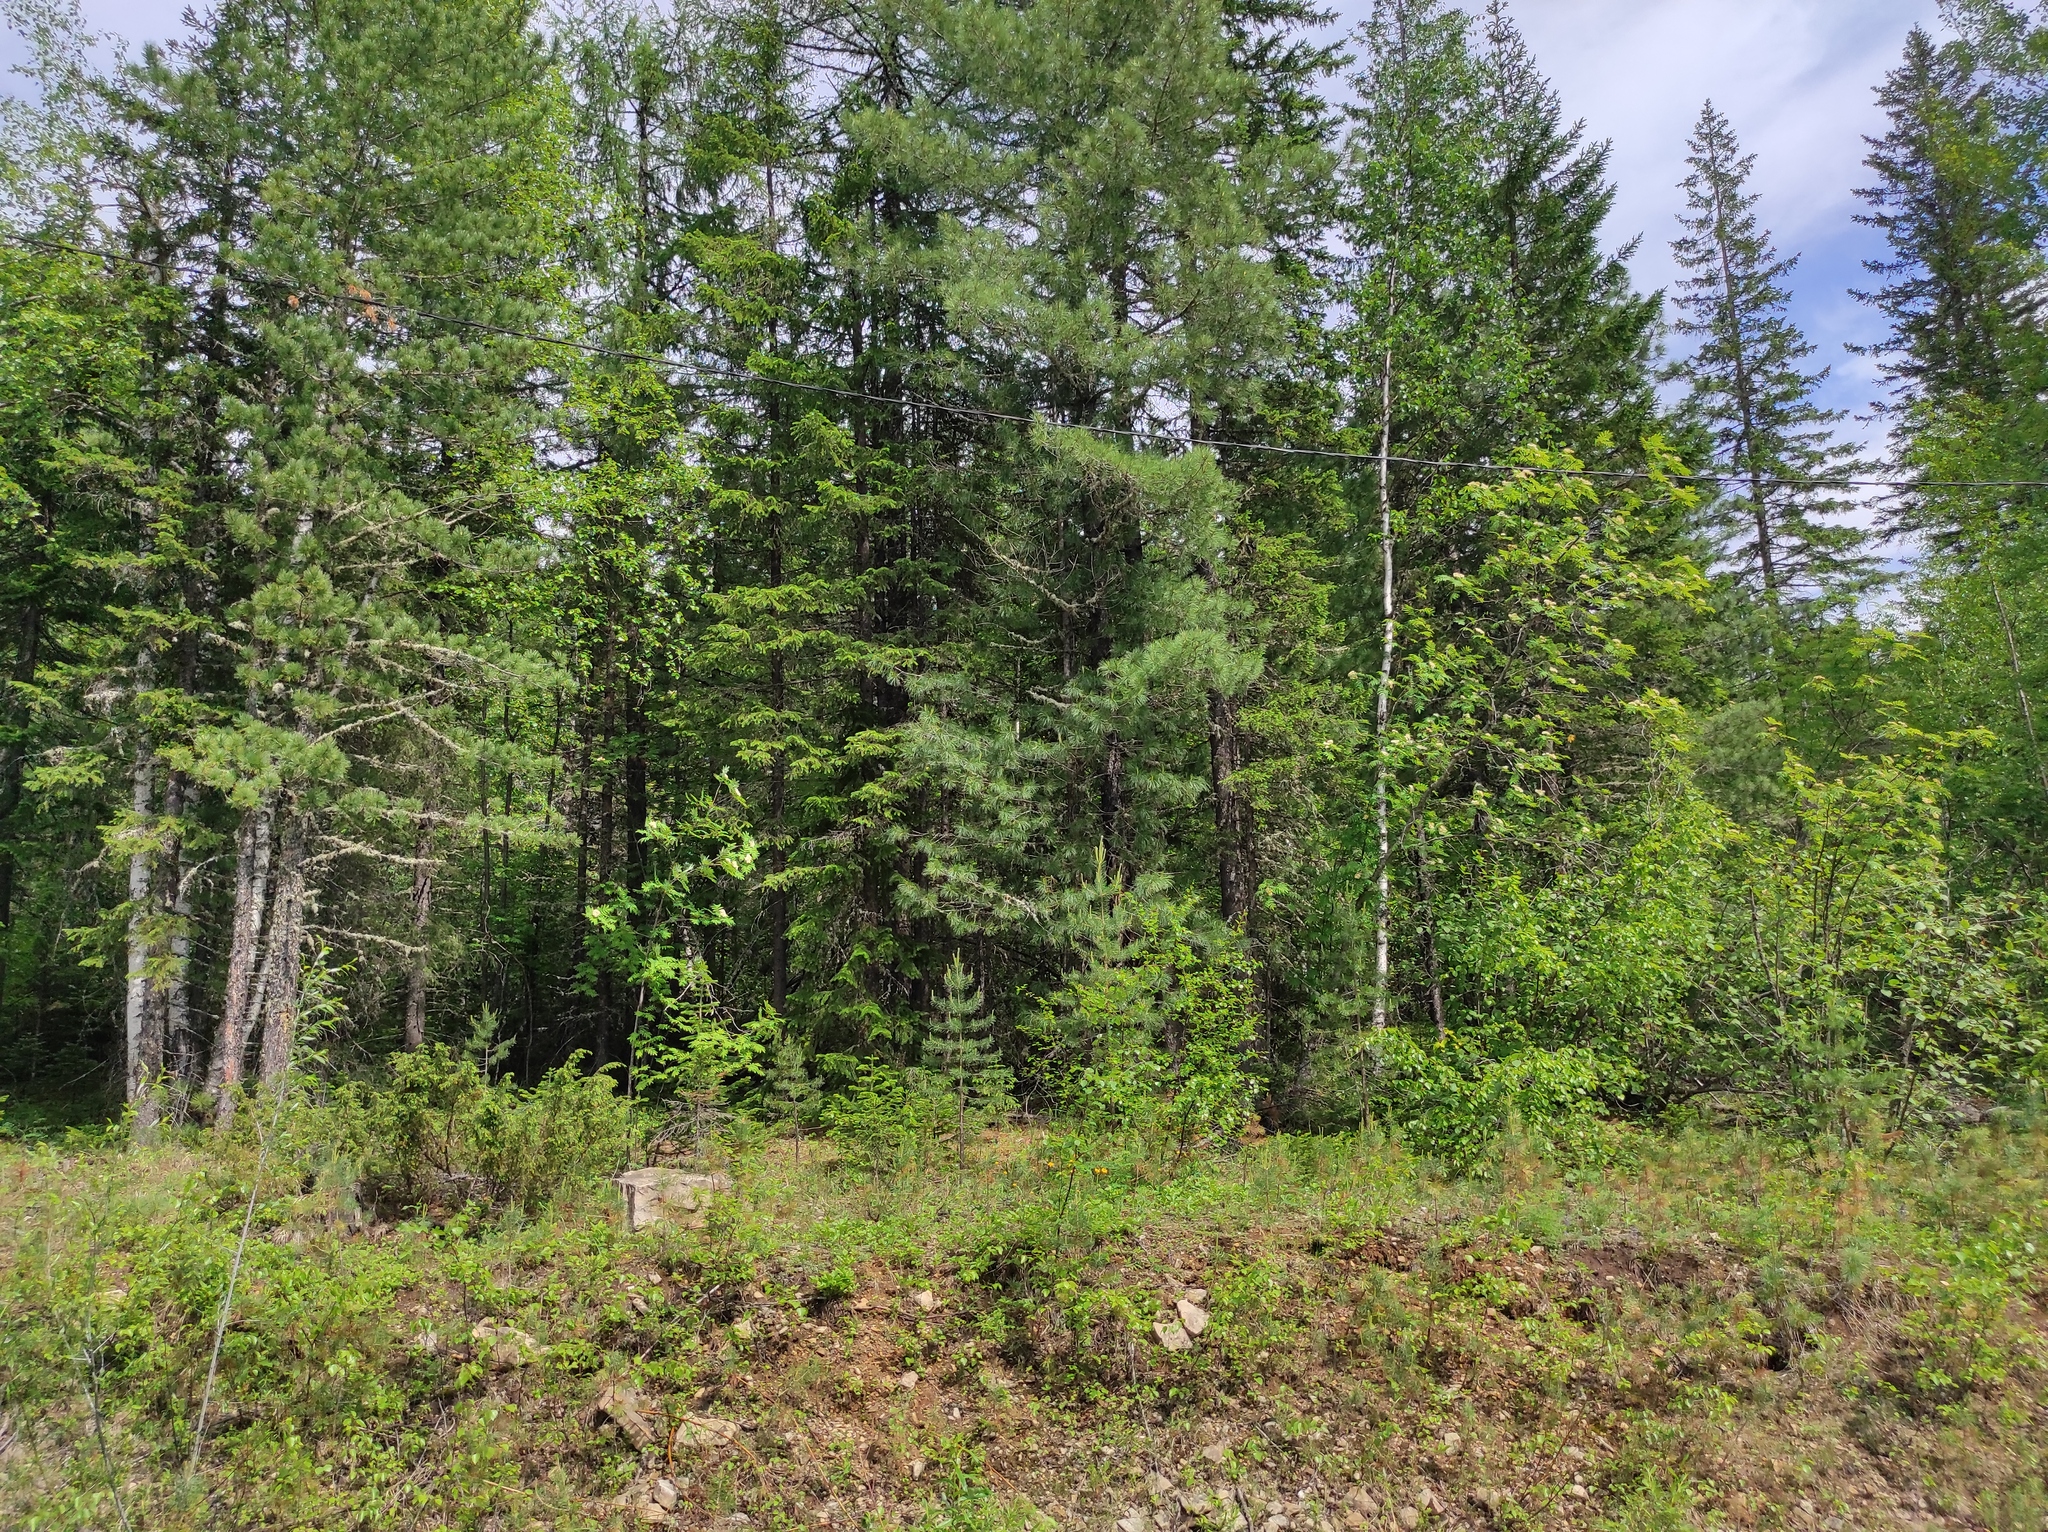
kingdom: Plantae
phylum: Tracheophyta
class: Pinopsida
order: Pinales
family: Pinaceae
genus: Pinus
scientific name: Pinus sylvestris
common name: Scots pine
